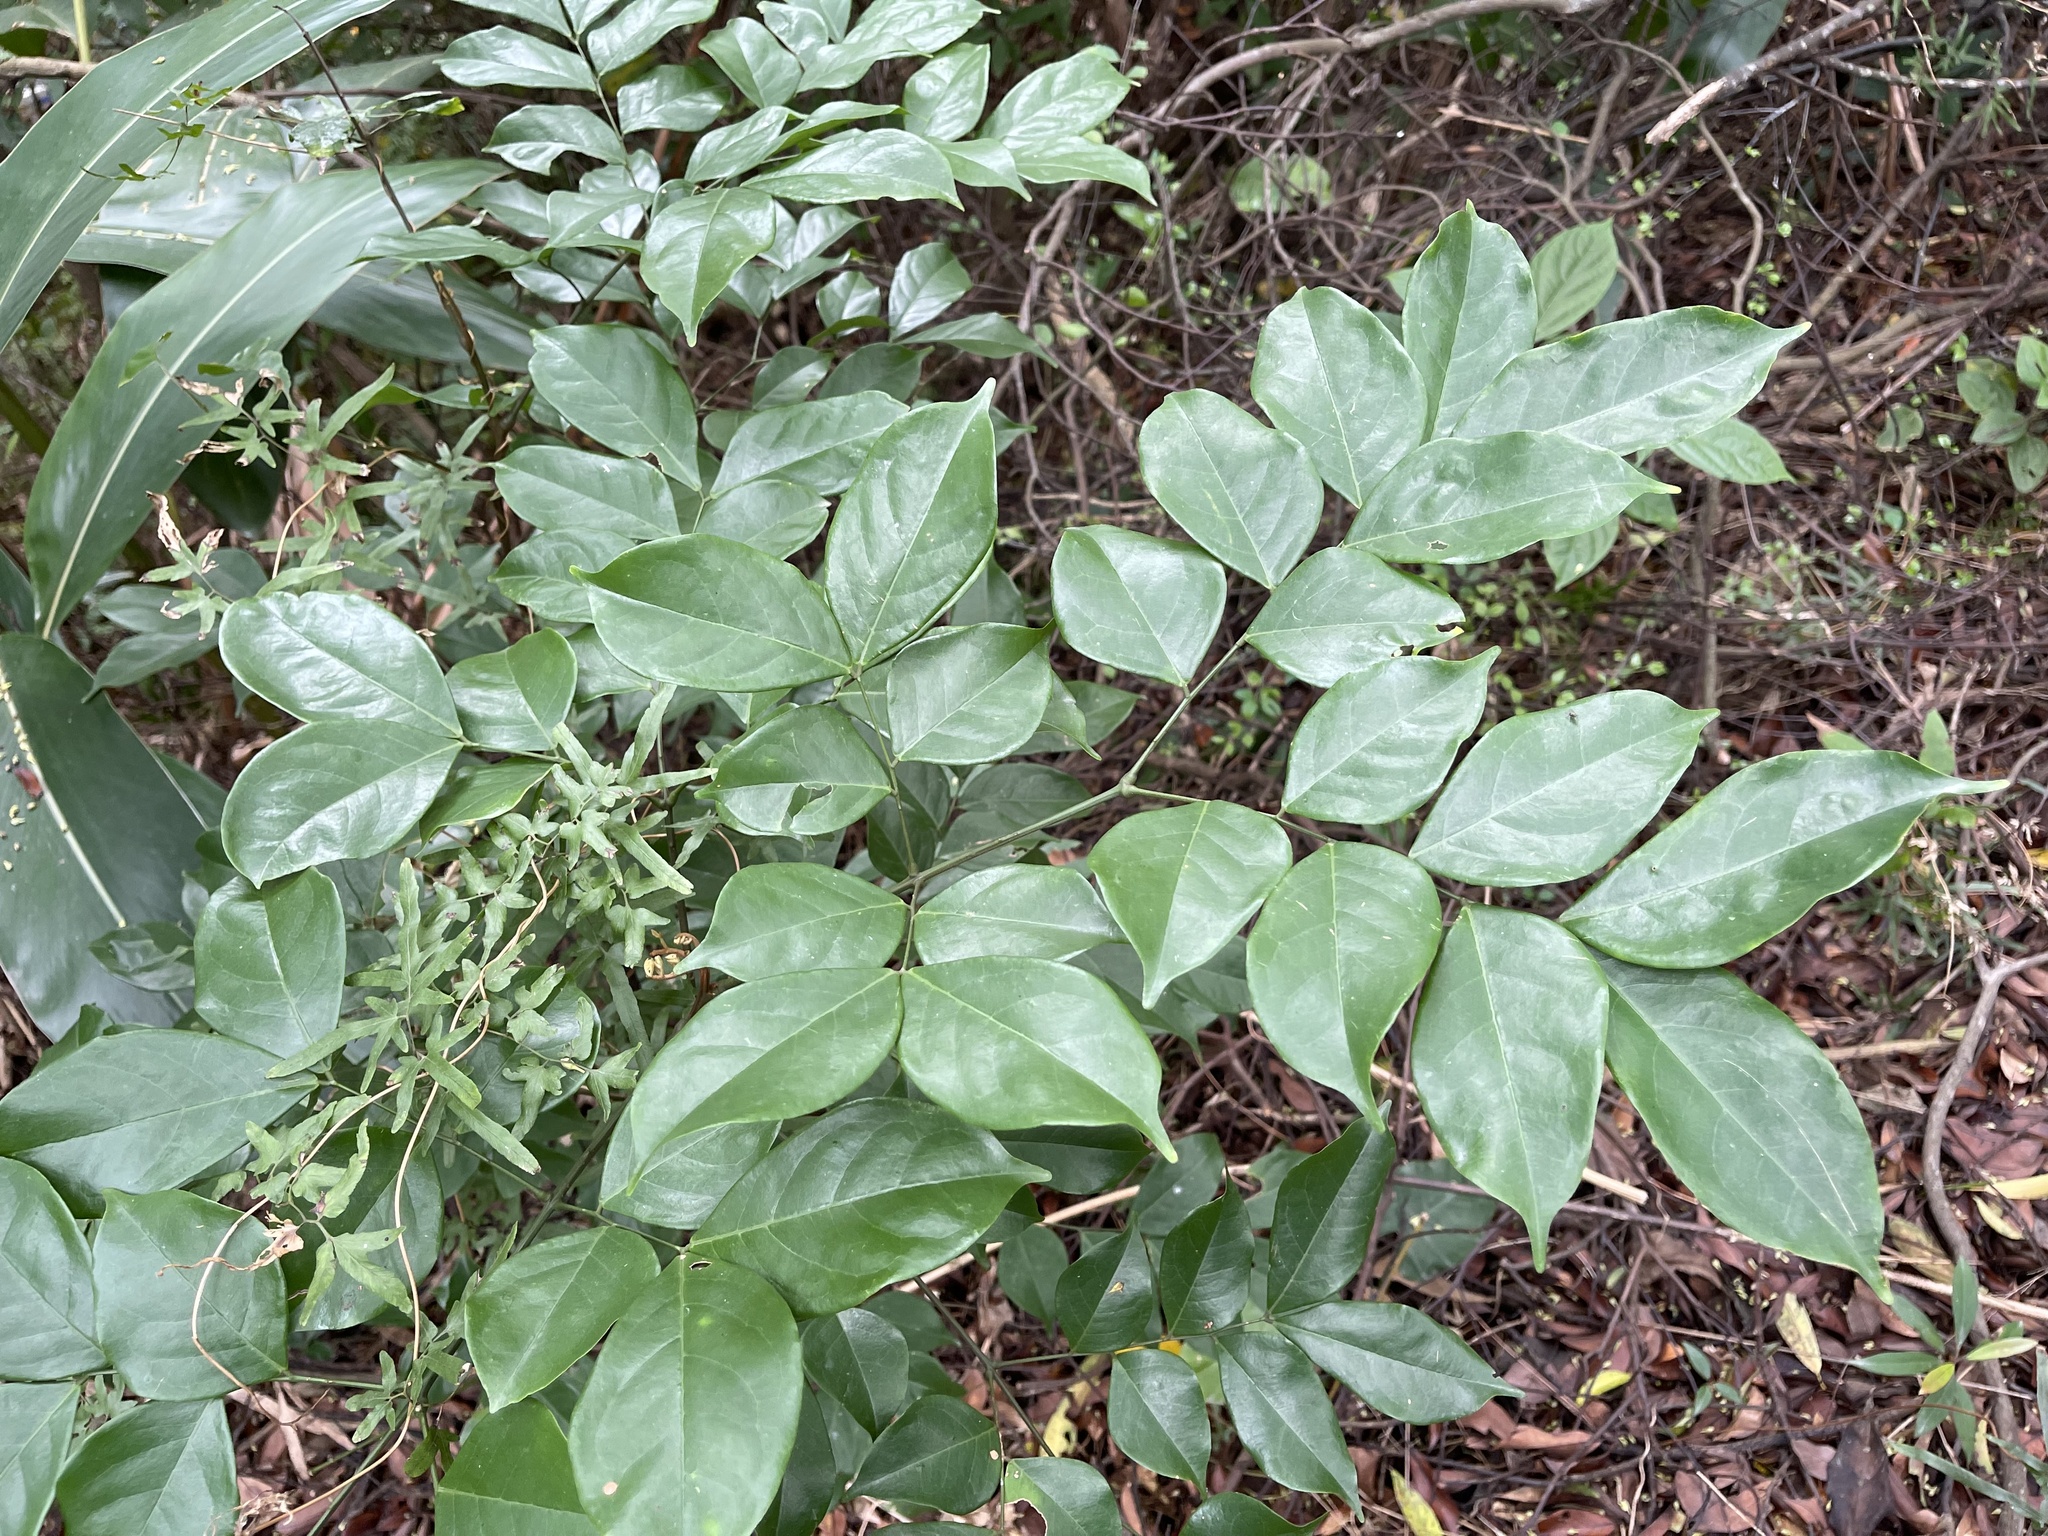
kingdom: Plantae
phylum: Tracheophyta
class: Magnoliopsida
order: Fabales
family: Fabaceae
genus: Archidendron
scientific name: Archidendron lucidum
